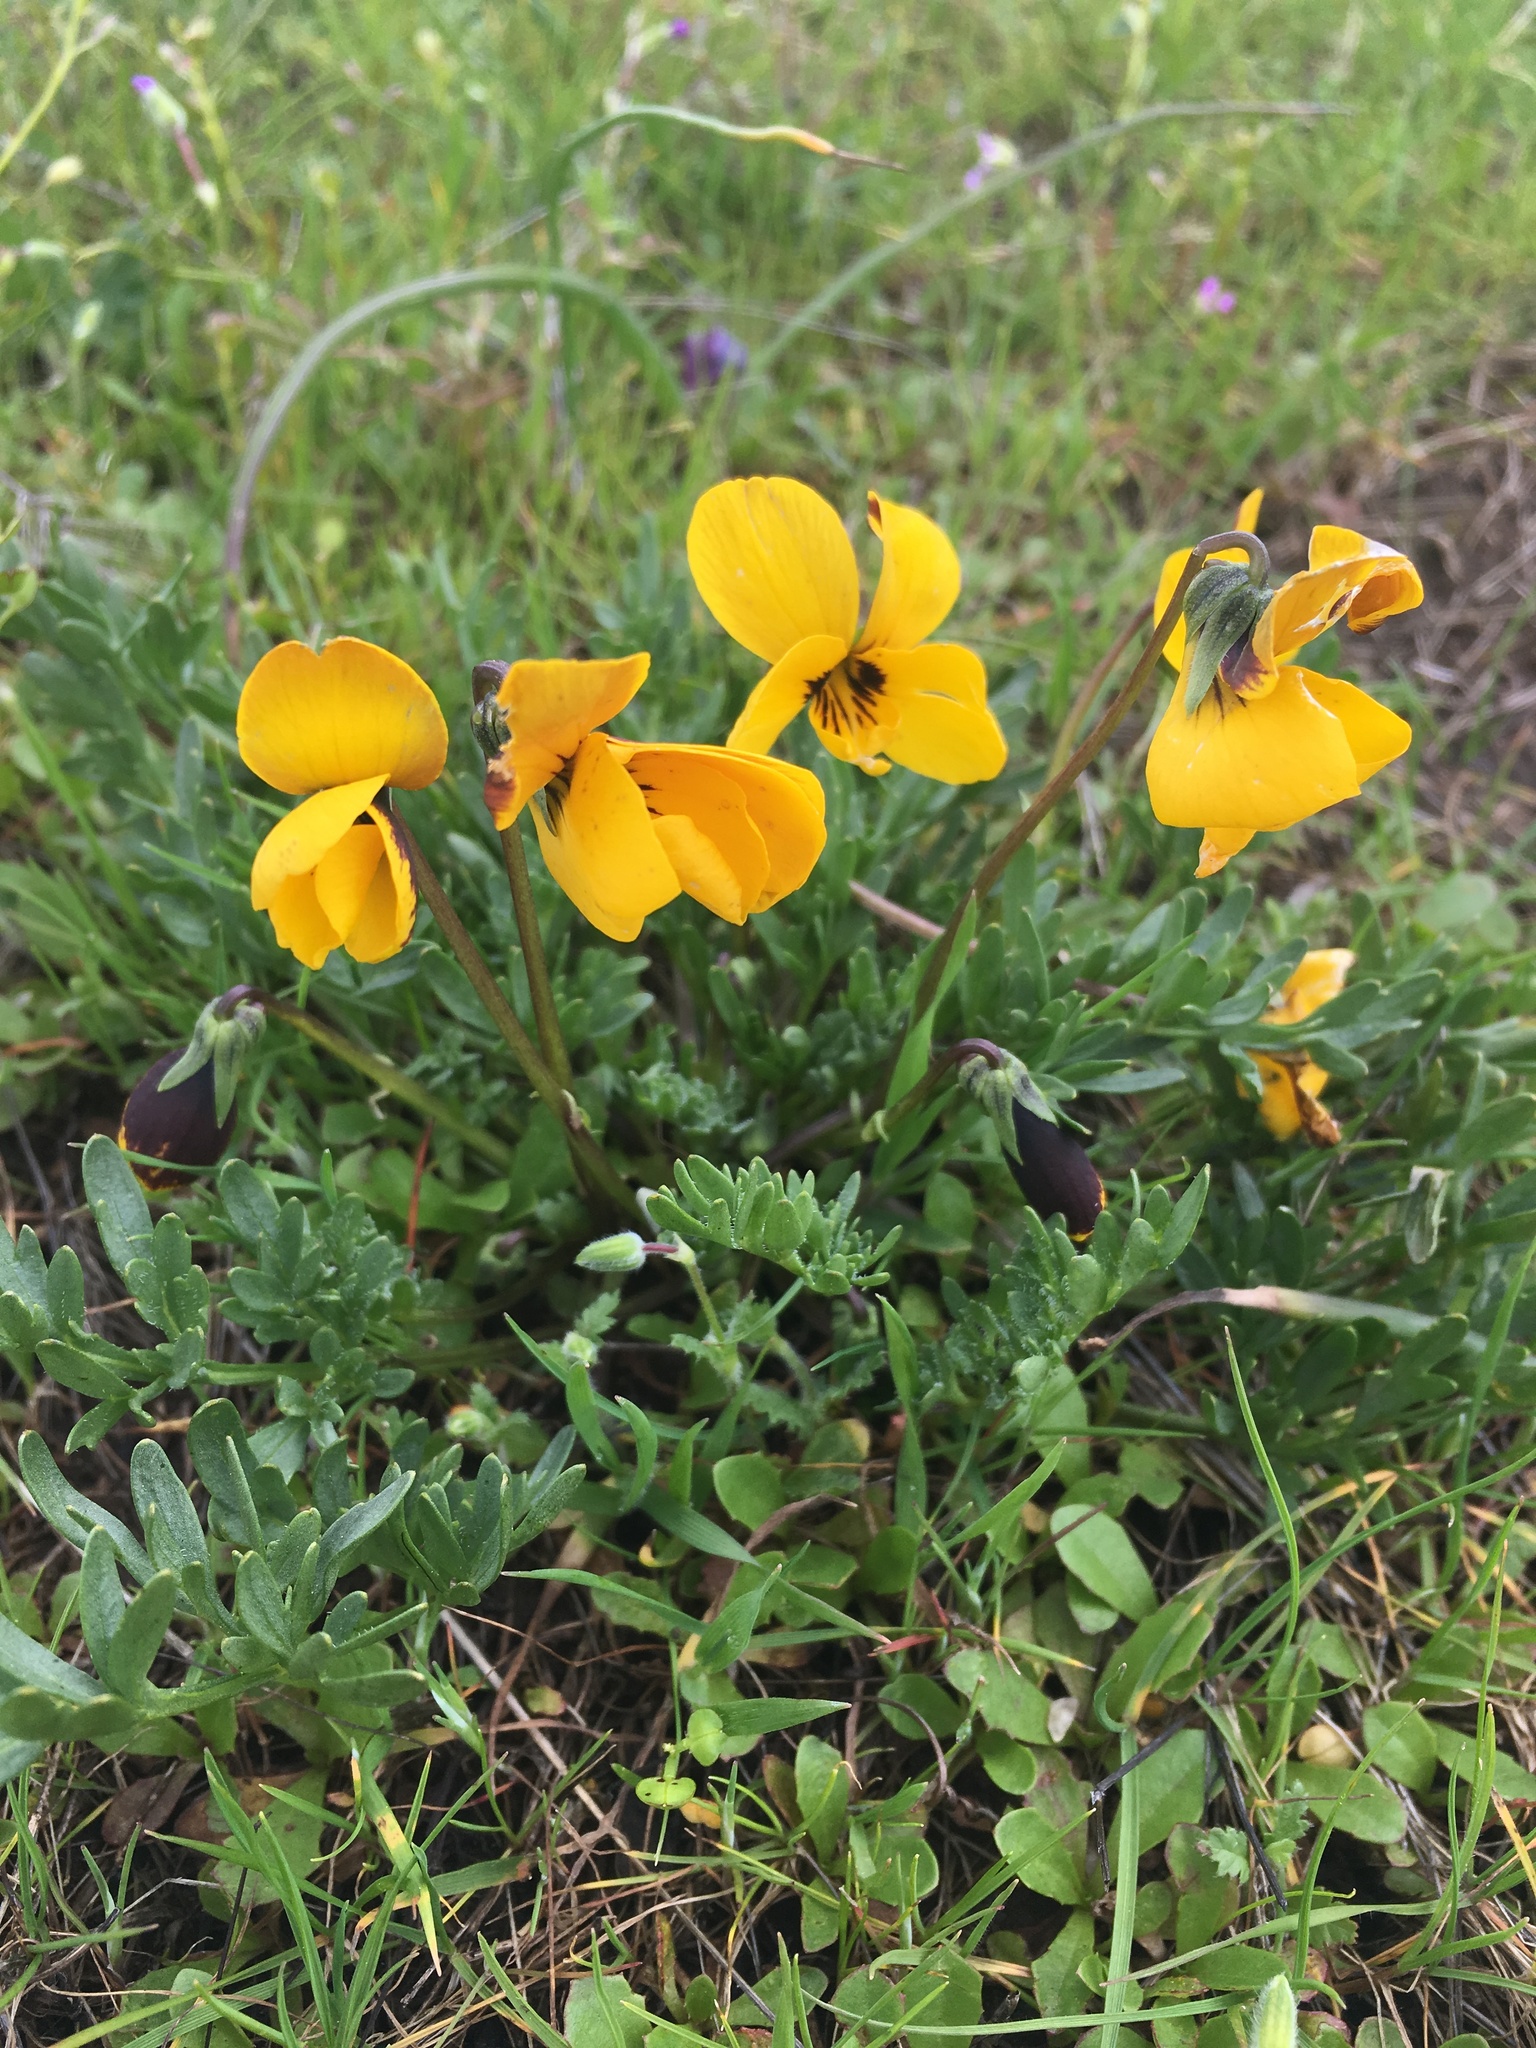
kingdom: Plantae
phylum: Tracheophyta
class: Magnoliopsida
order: Malpighiales
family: Violaceae
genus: Viola
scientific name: Viola douglasii
